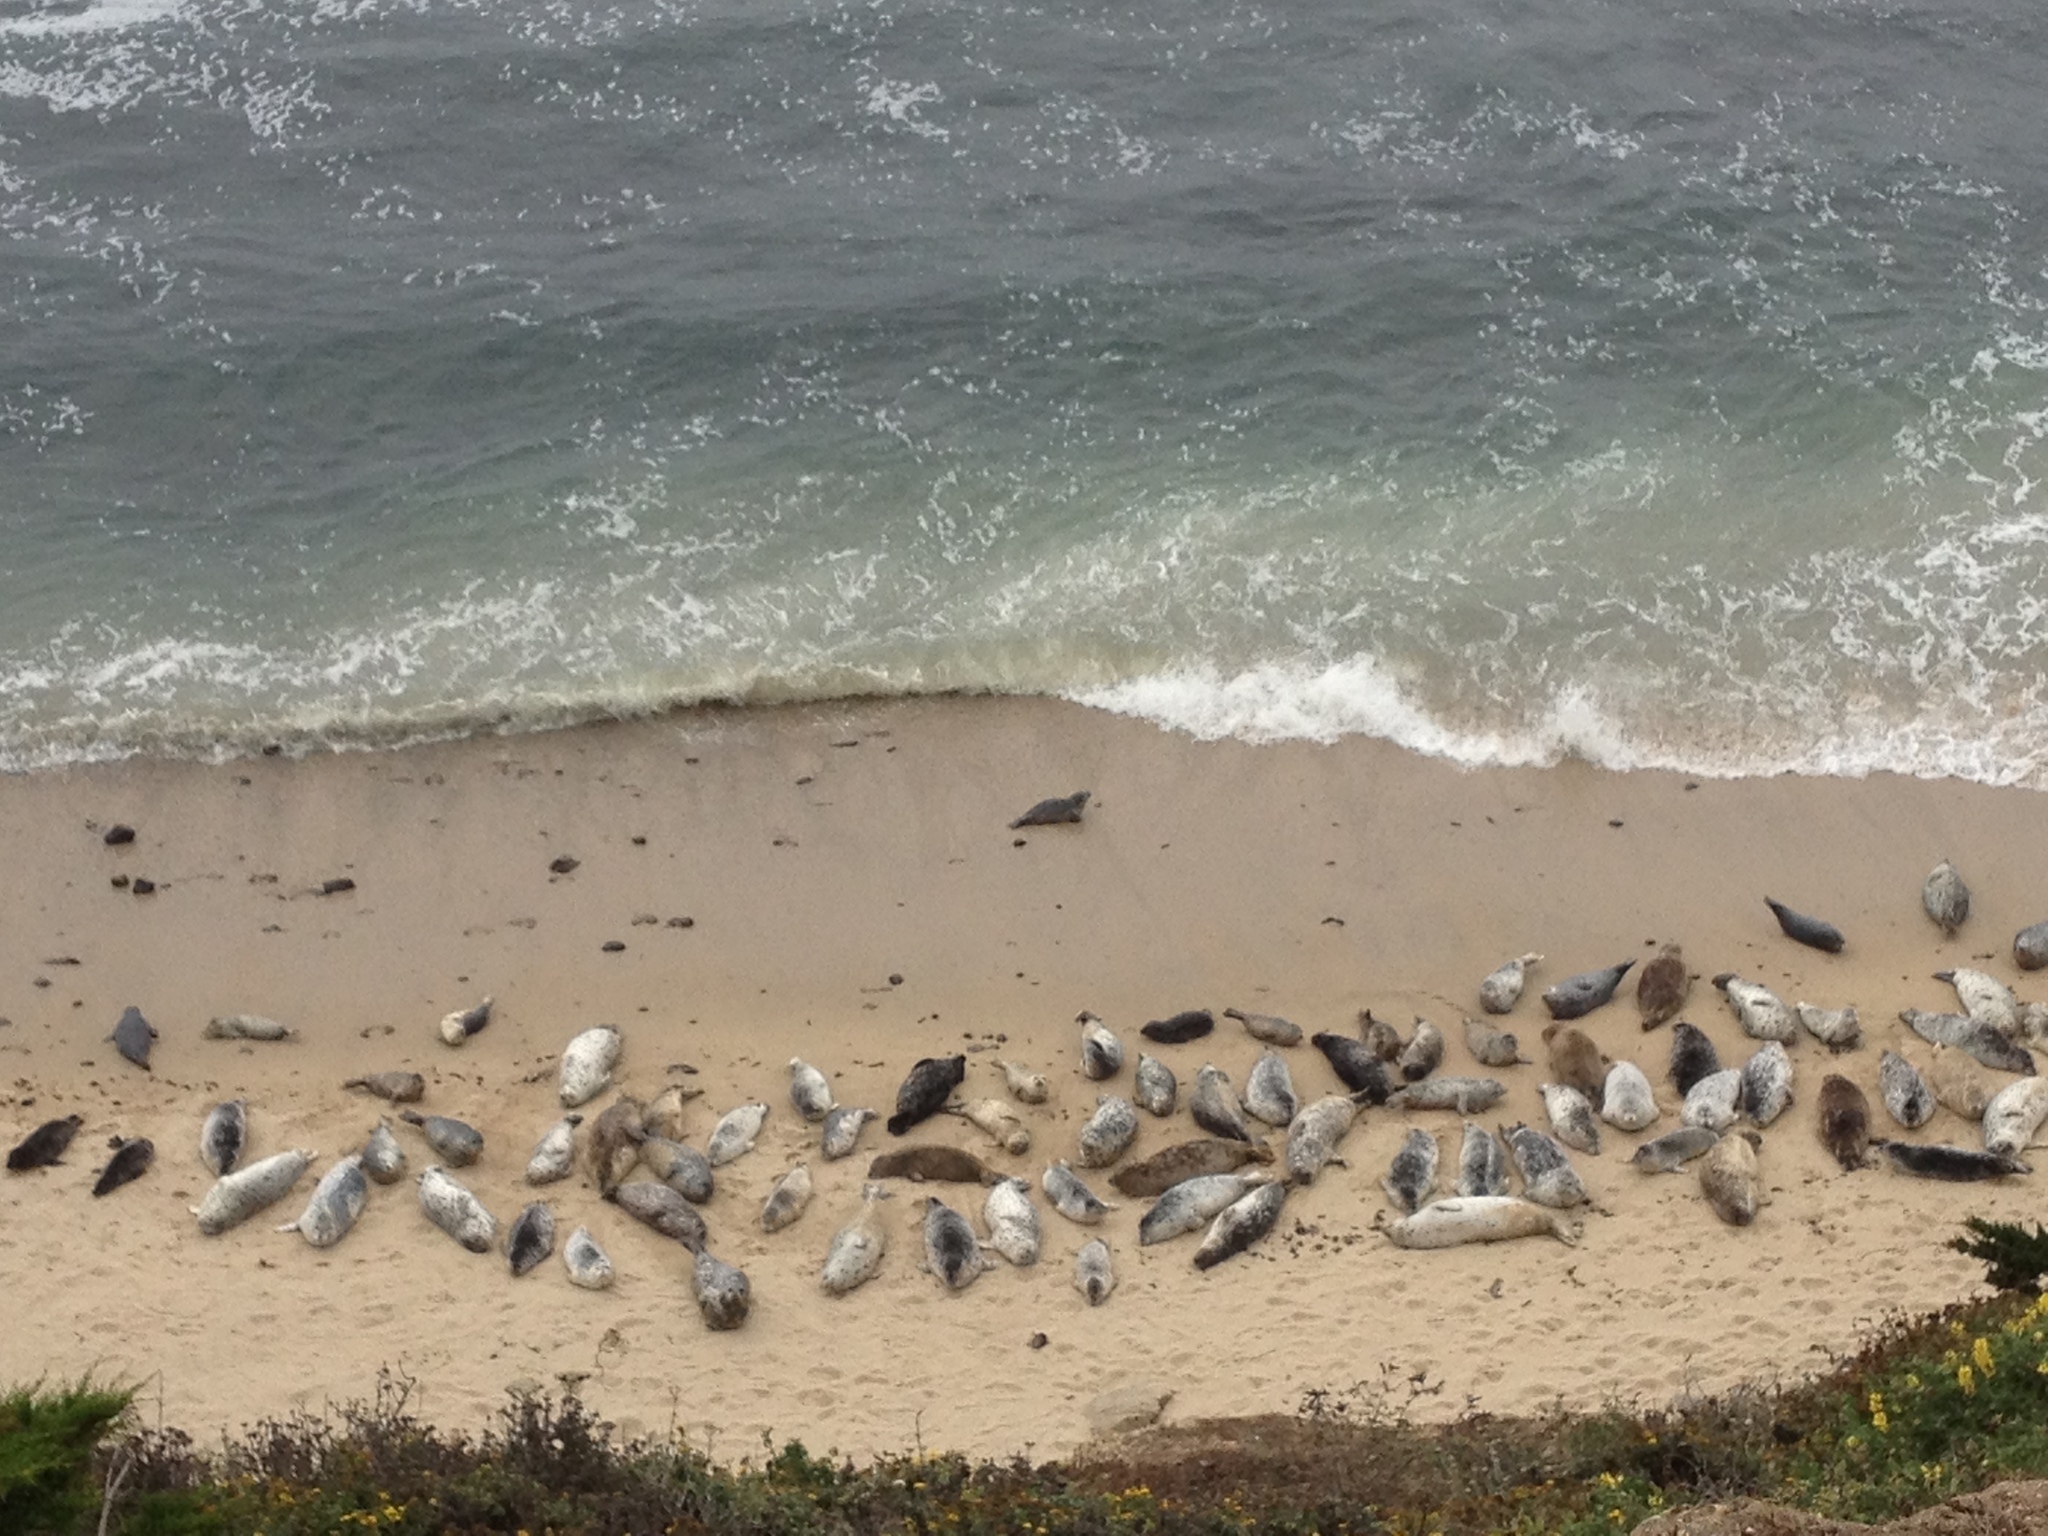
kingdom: Animalia
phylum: Chordata
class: Mammalia
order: Carnivora
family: Phocidae
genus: Phoca
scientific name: Phoca vitulina
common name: Harbor seal
